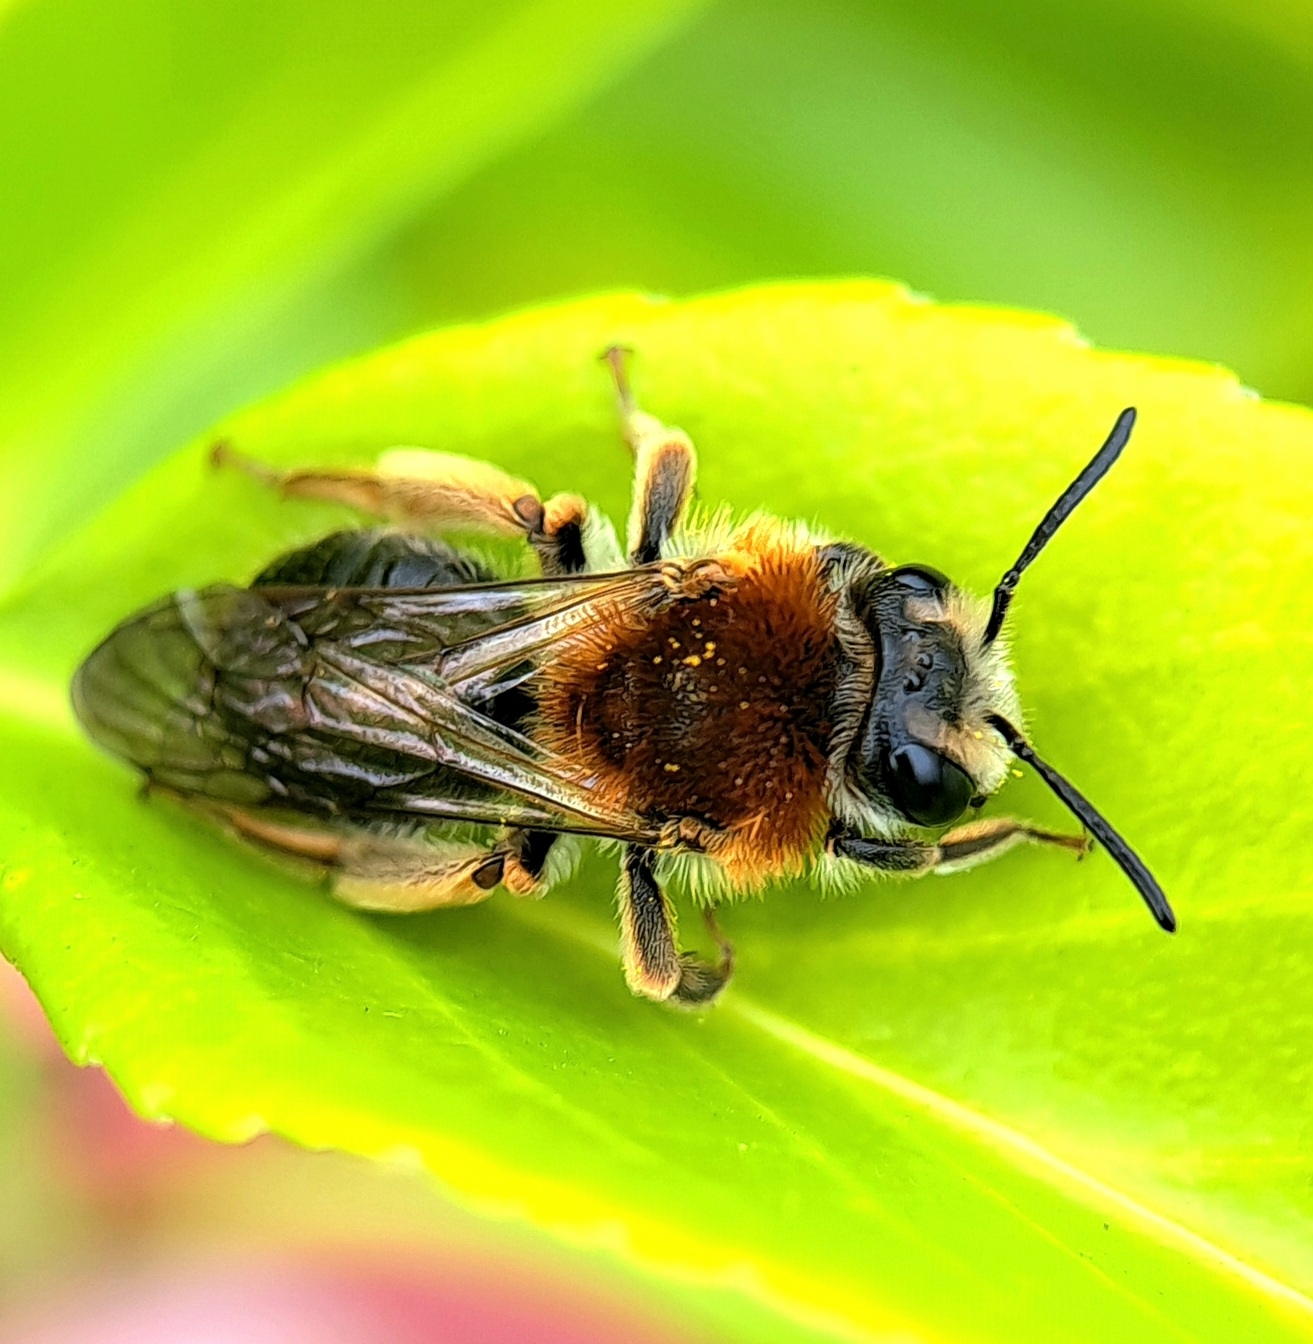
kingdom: Animalia
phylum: Arthropoda
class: Insecta
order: Hymenoptera
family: Andrenidae
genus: Andrena
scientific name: Andrena haemorrhoa
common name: Early mining bee
